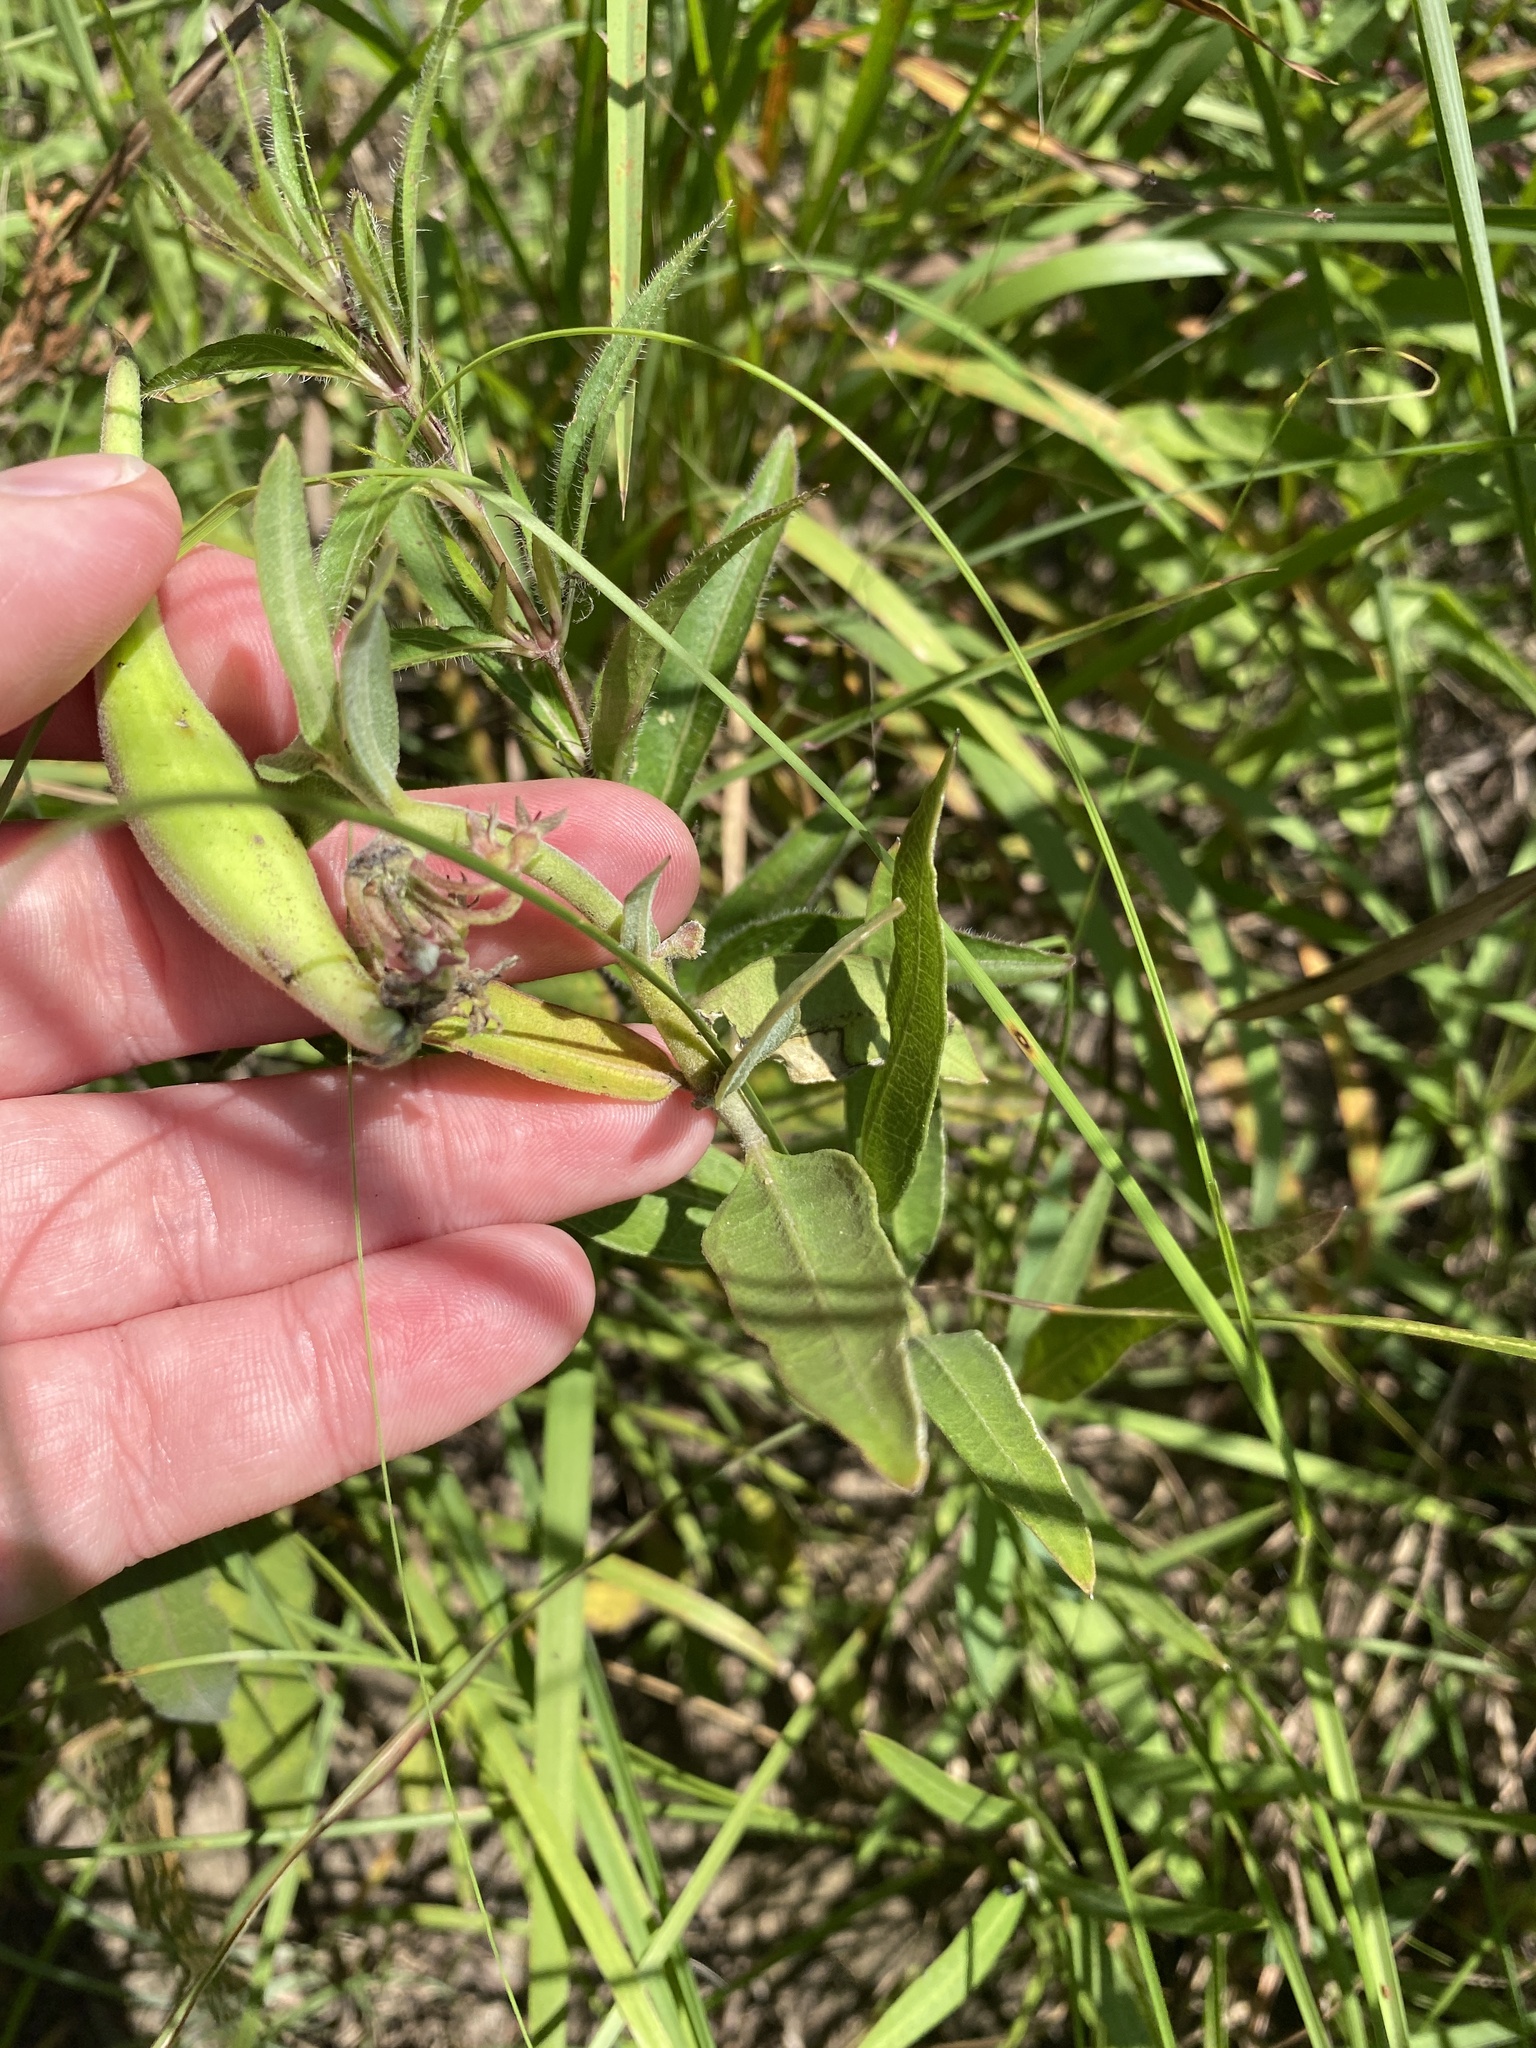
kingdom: Plantae
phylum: Tracheophyta
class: Magnoliopsida
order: Gentianales
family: Apocynaceae
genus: Asclepias
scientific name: Asclepias viridiflora
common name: Green comet milkweed
